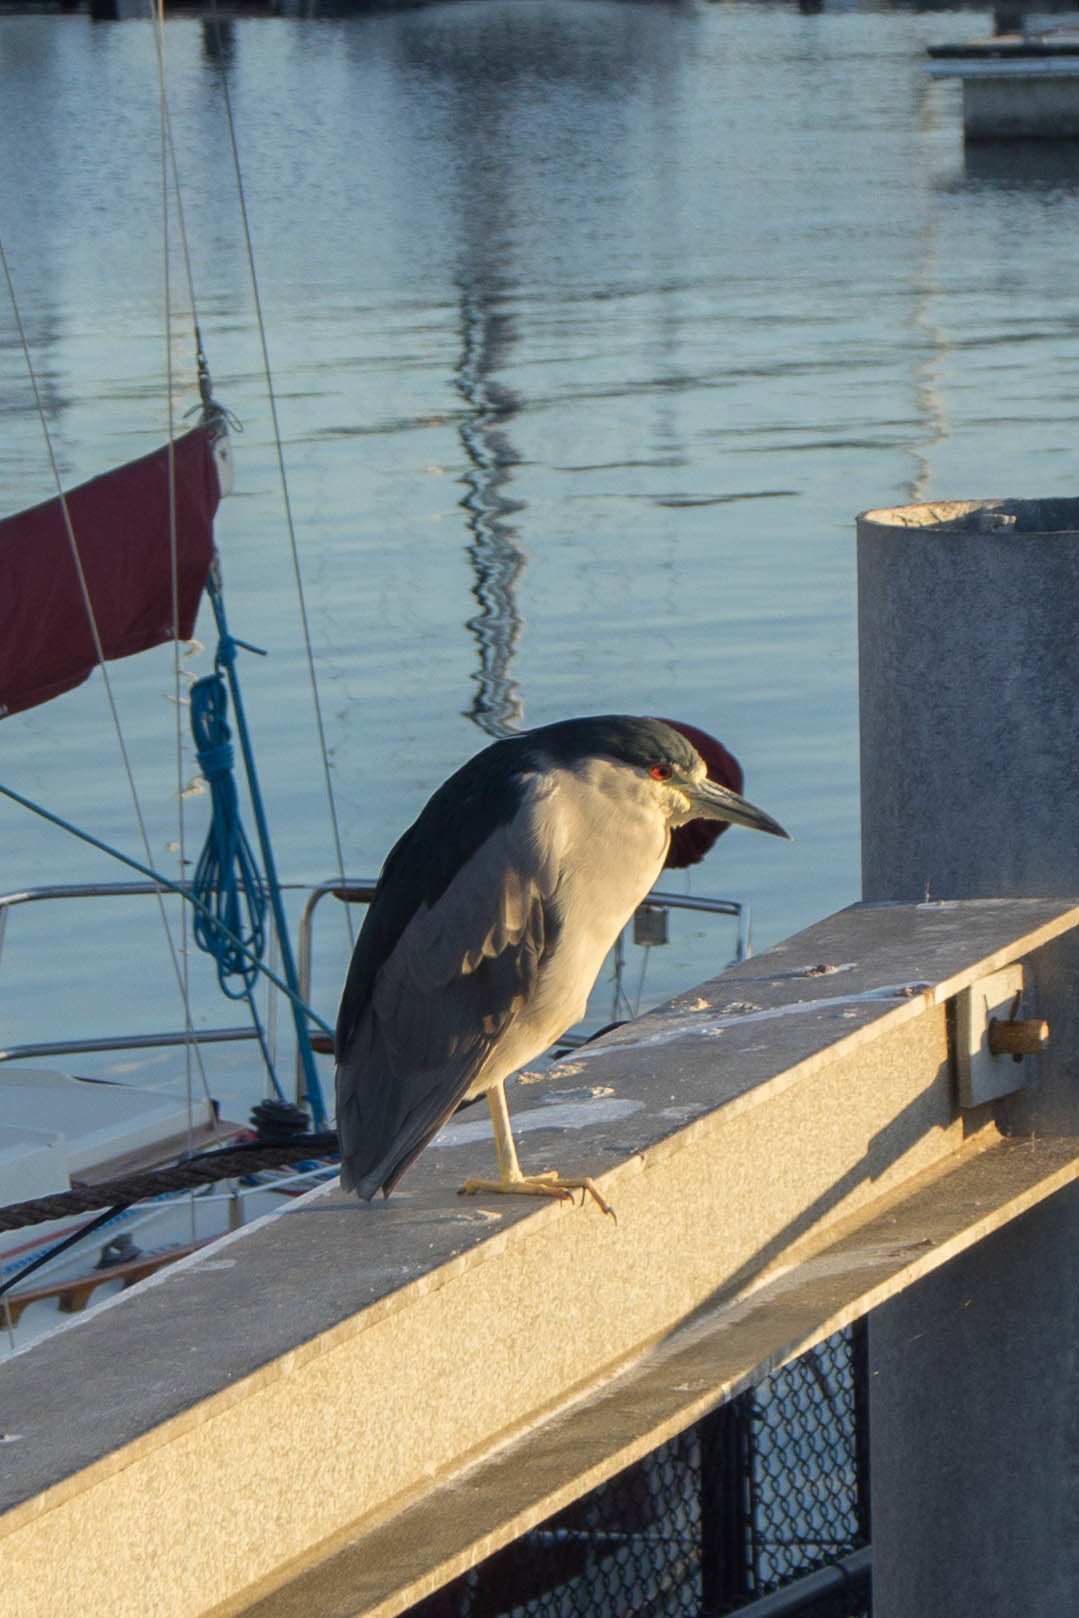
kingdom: Animalia
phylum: Chordata
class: Aves
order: Pelecaniformes
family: Ardeidae
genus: Nycticorax
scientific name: Nycticorax nycticorax
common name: Black-crowned night heron
